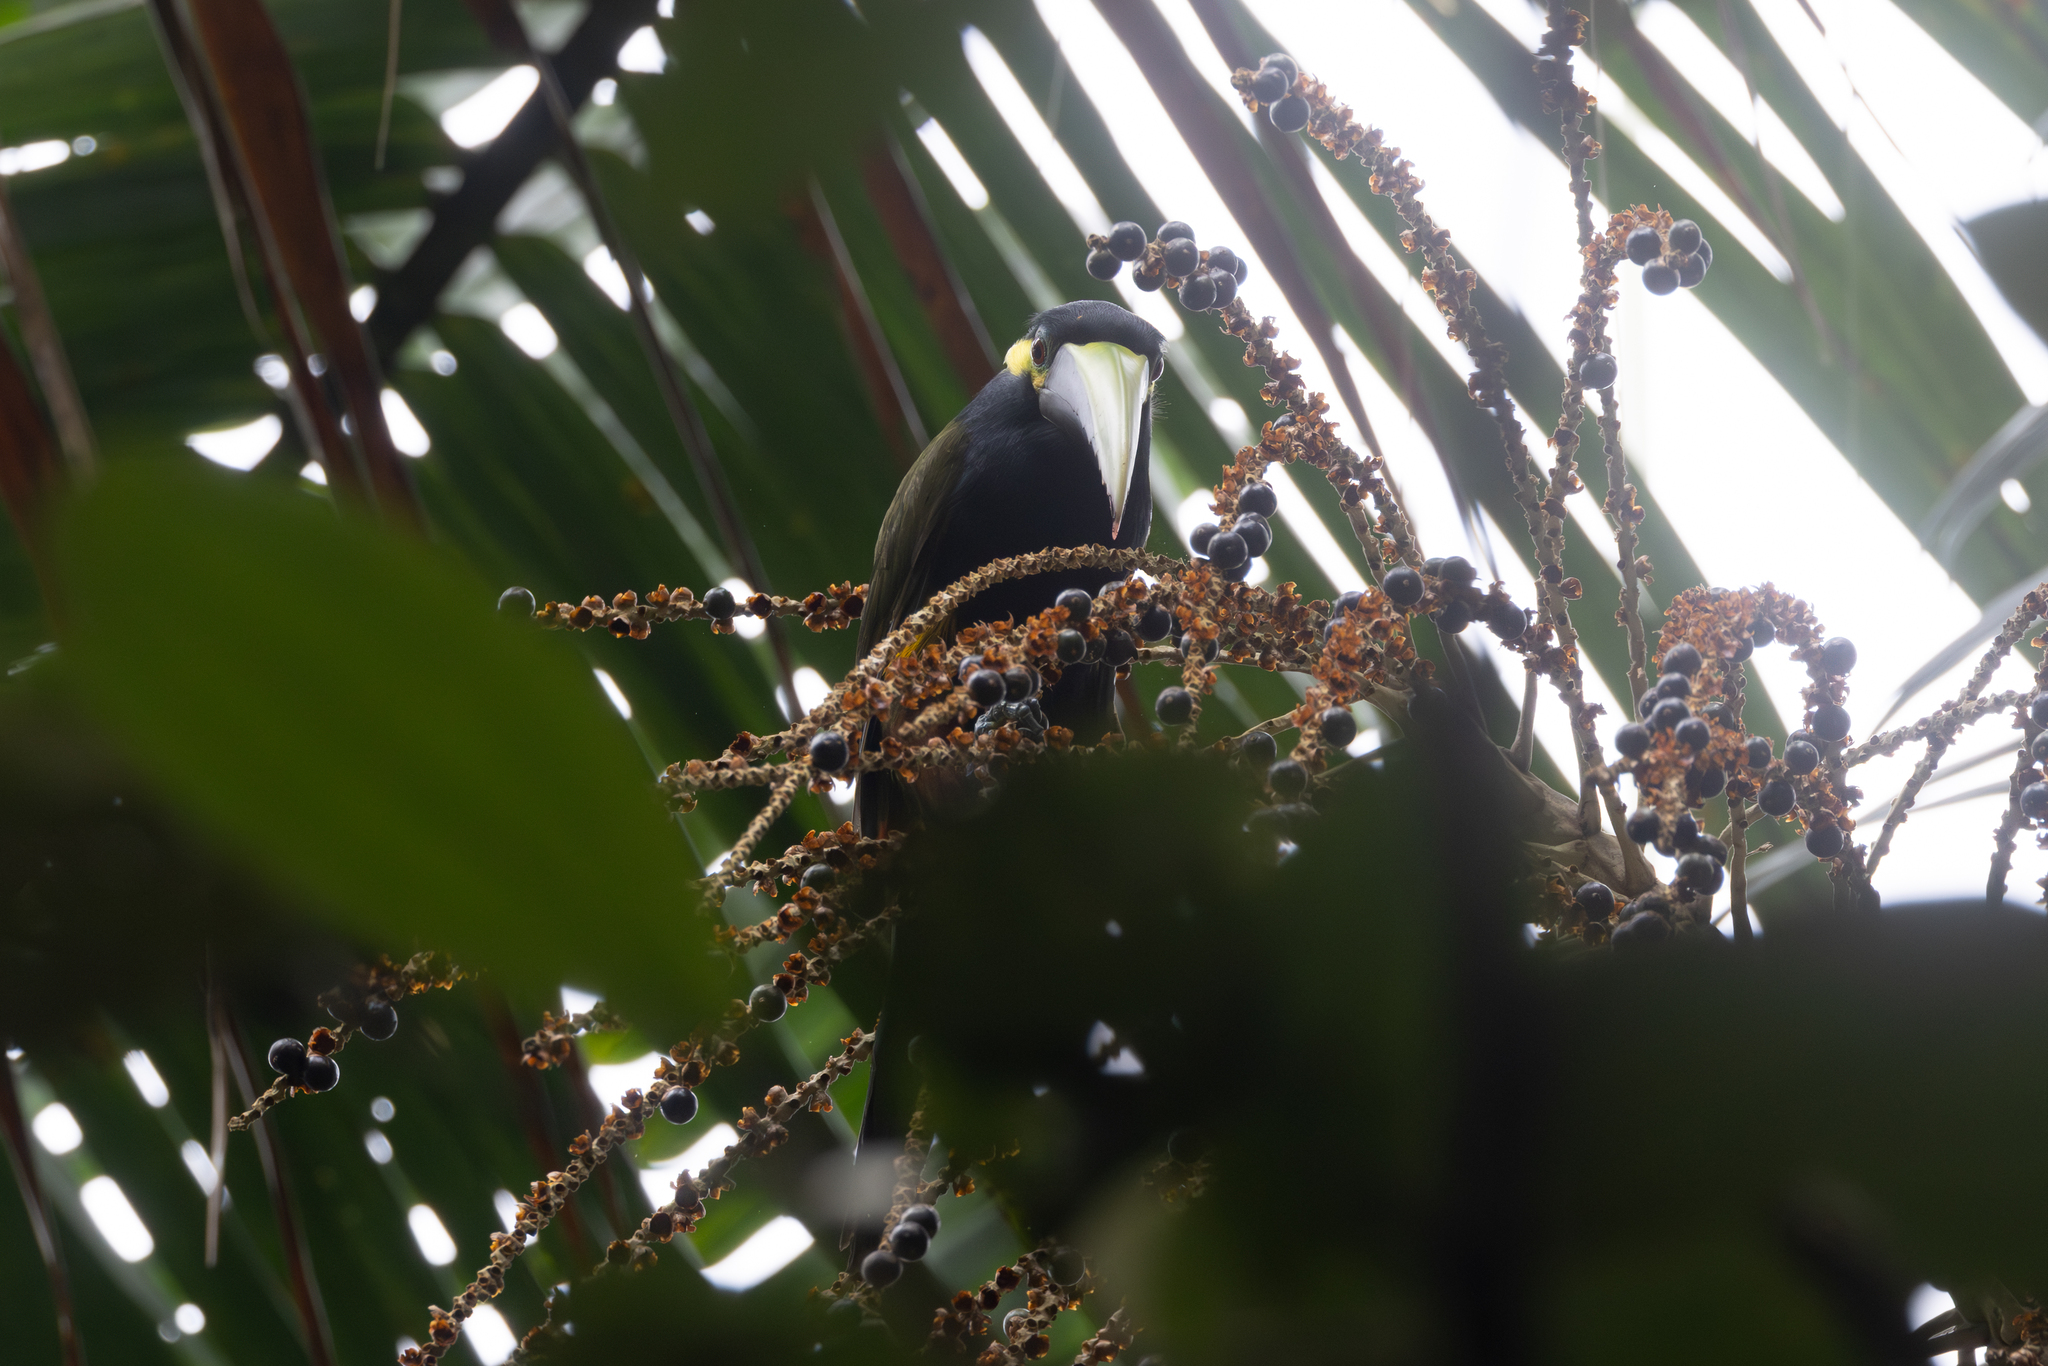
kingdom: Animalia
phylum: Chordata
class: Aves
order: Piciformes
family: Ramphastidae
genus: Selenidera
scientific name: Selenidera spectabilis
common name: Yellow-eared toucanet
